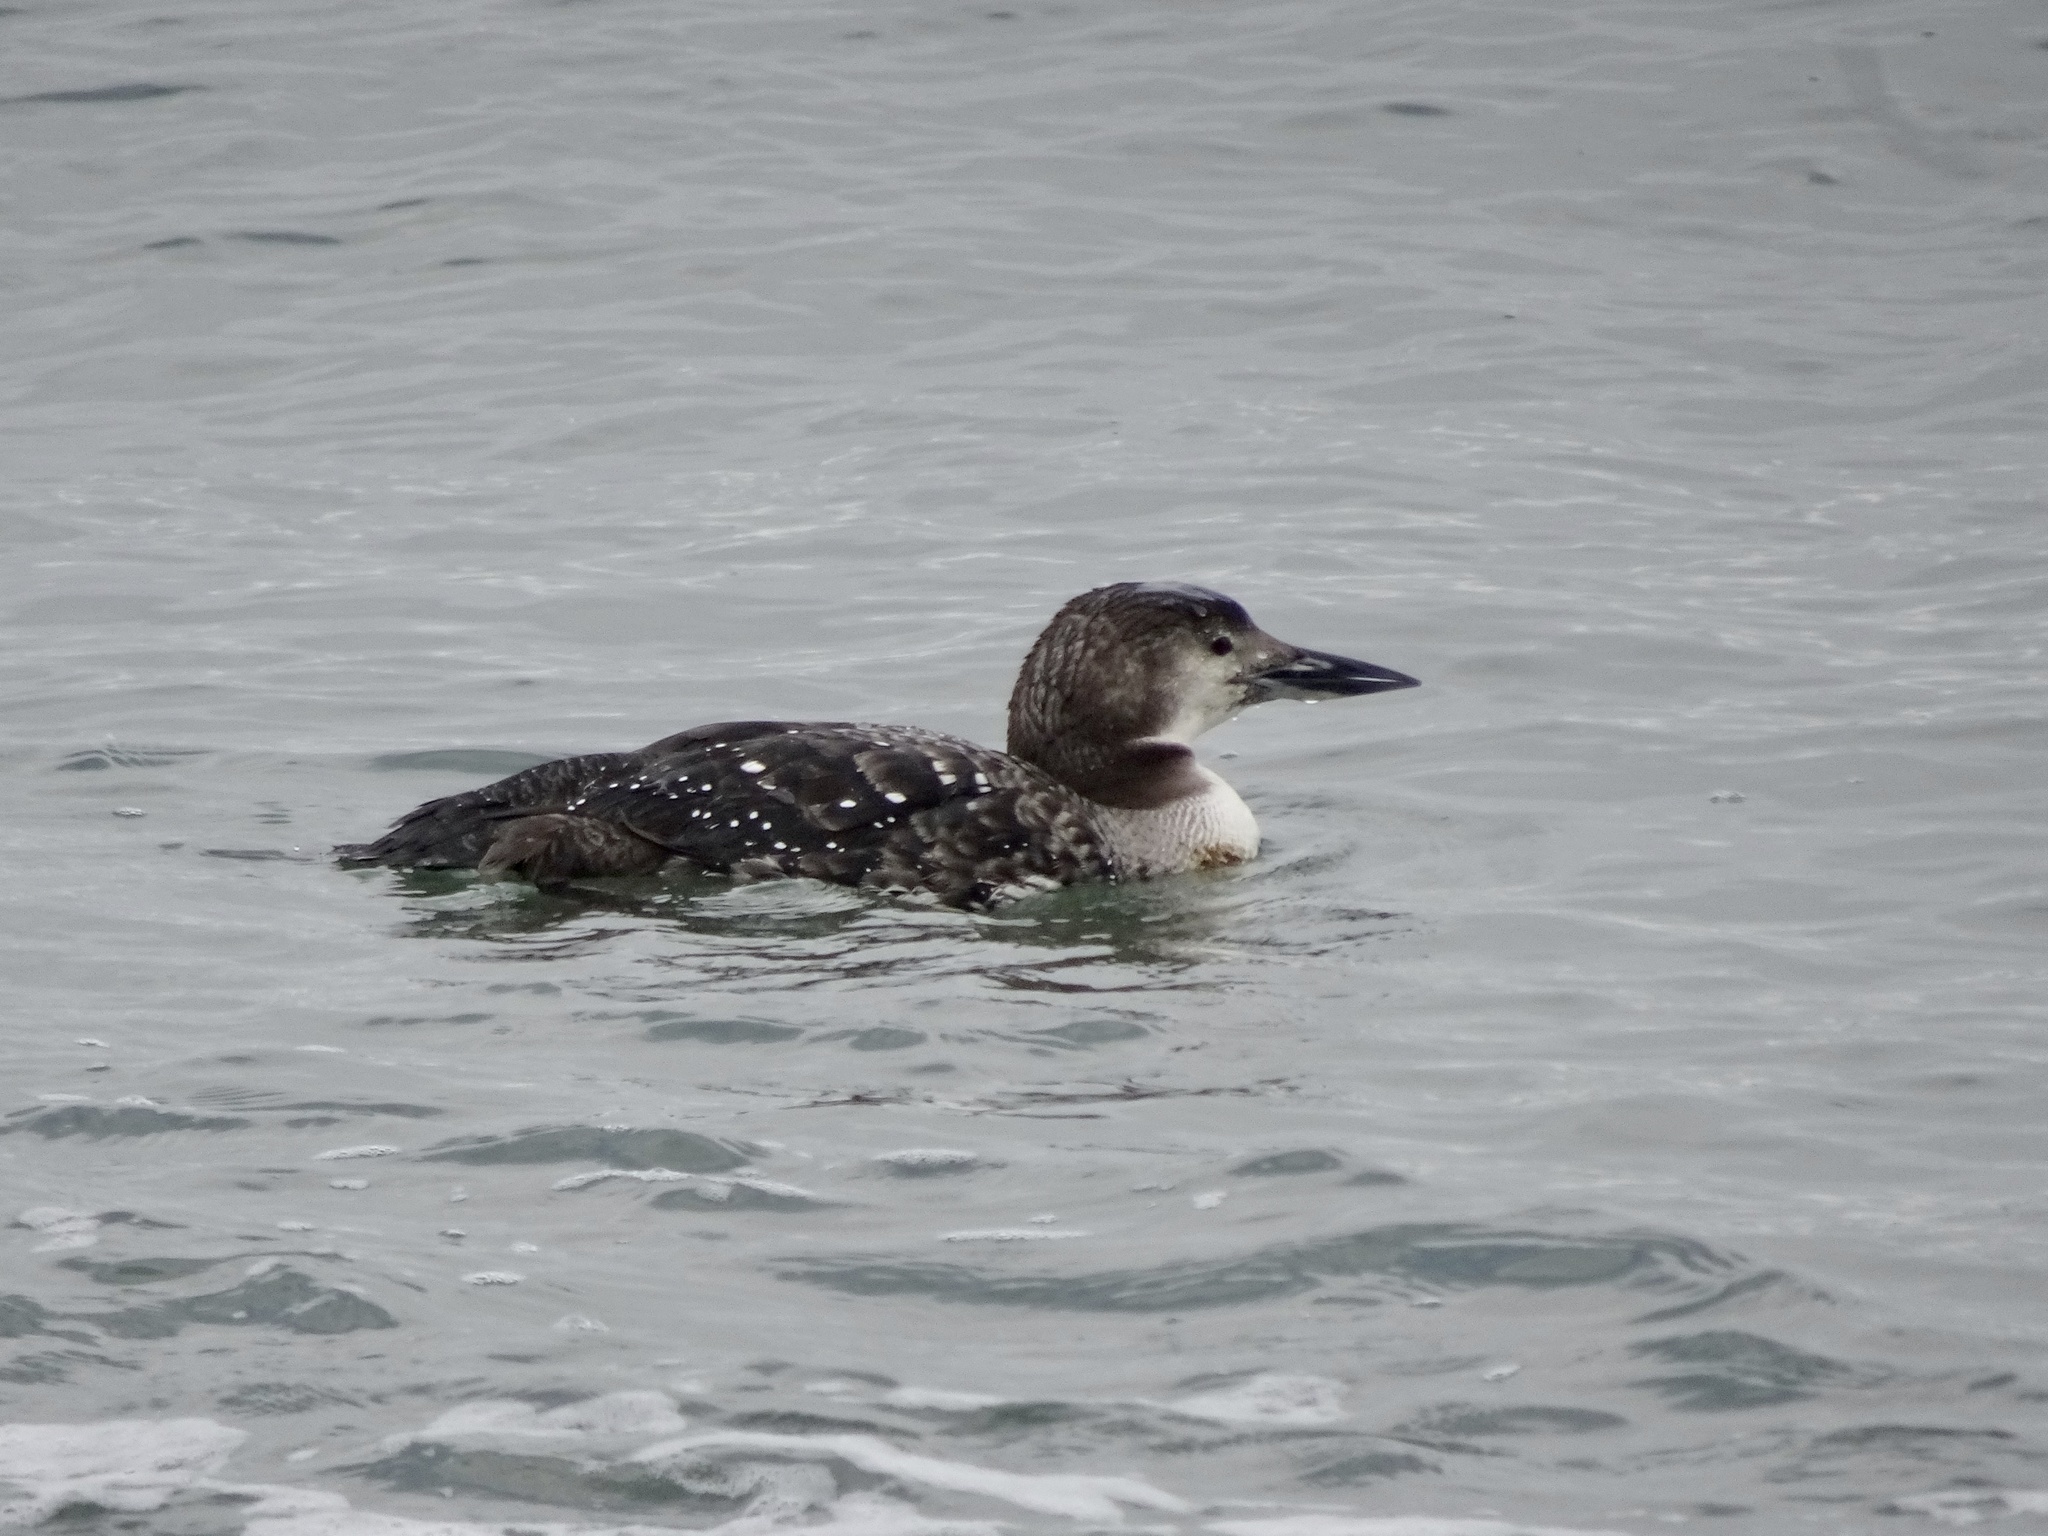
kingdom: Animalia
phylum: Chordata
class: Aves
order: Gaviiformes
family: Gaviidae
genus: Gavia
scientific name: Gavia immer
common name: Common loon
